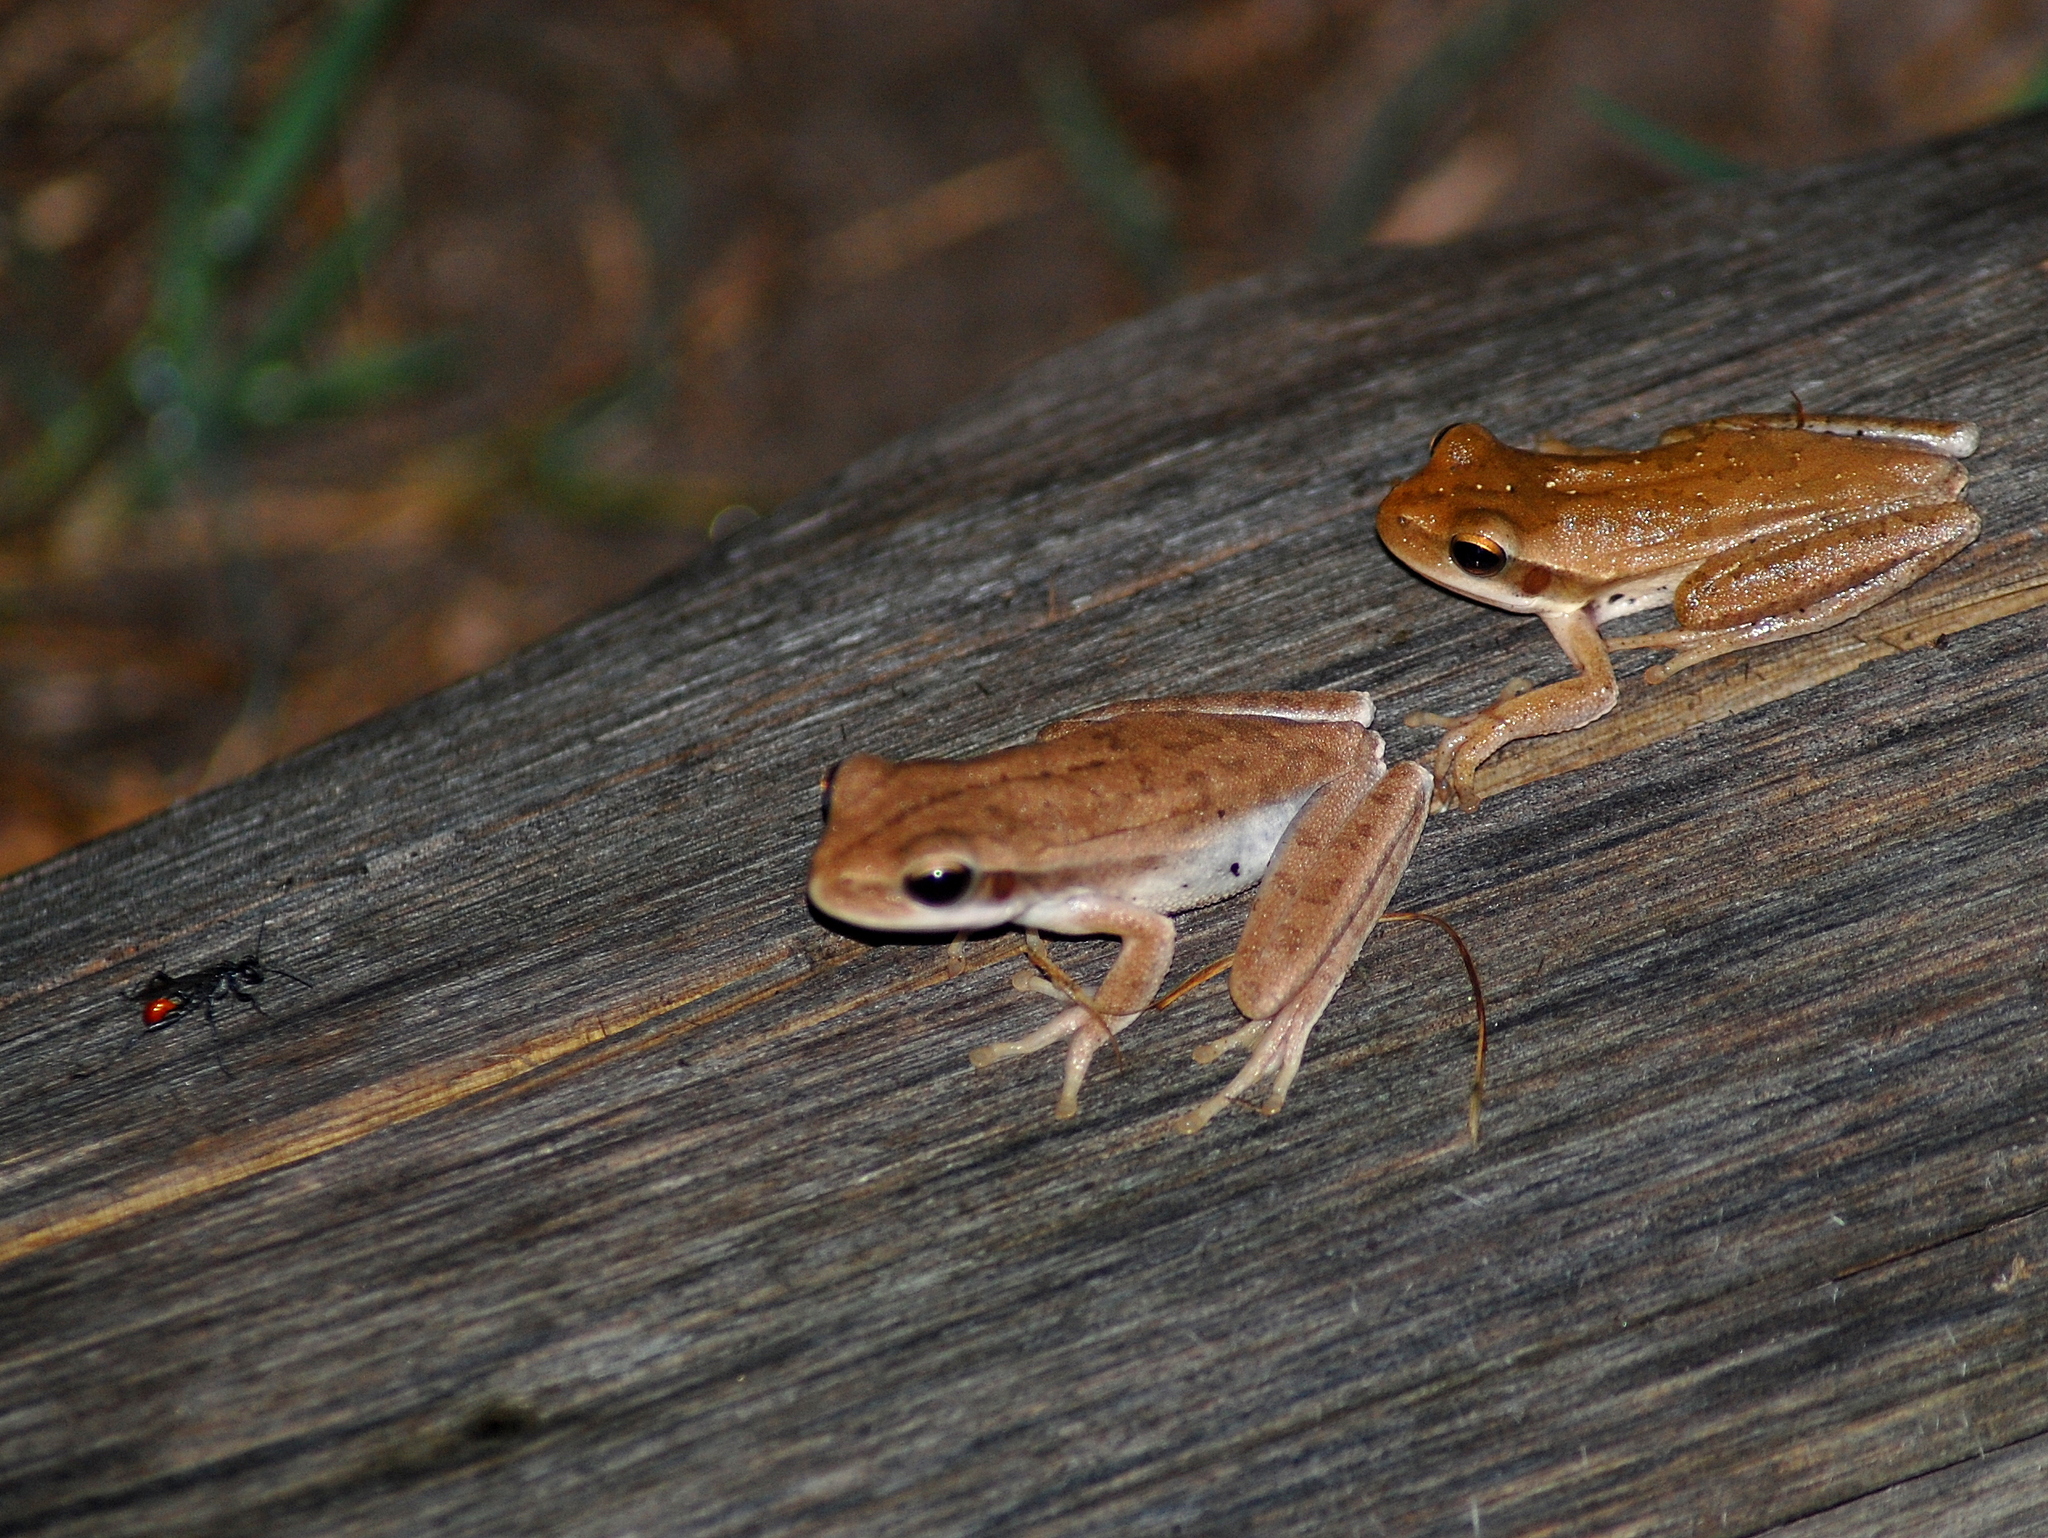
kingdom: Animalia
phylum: Chordata
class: Amphibia
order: Anura
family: Hylidae
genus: Boana
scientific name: Boana pulchella
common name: Montevideo treefrog
